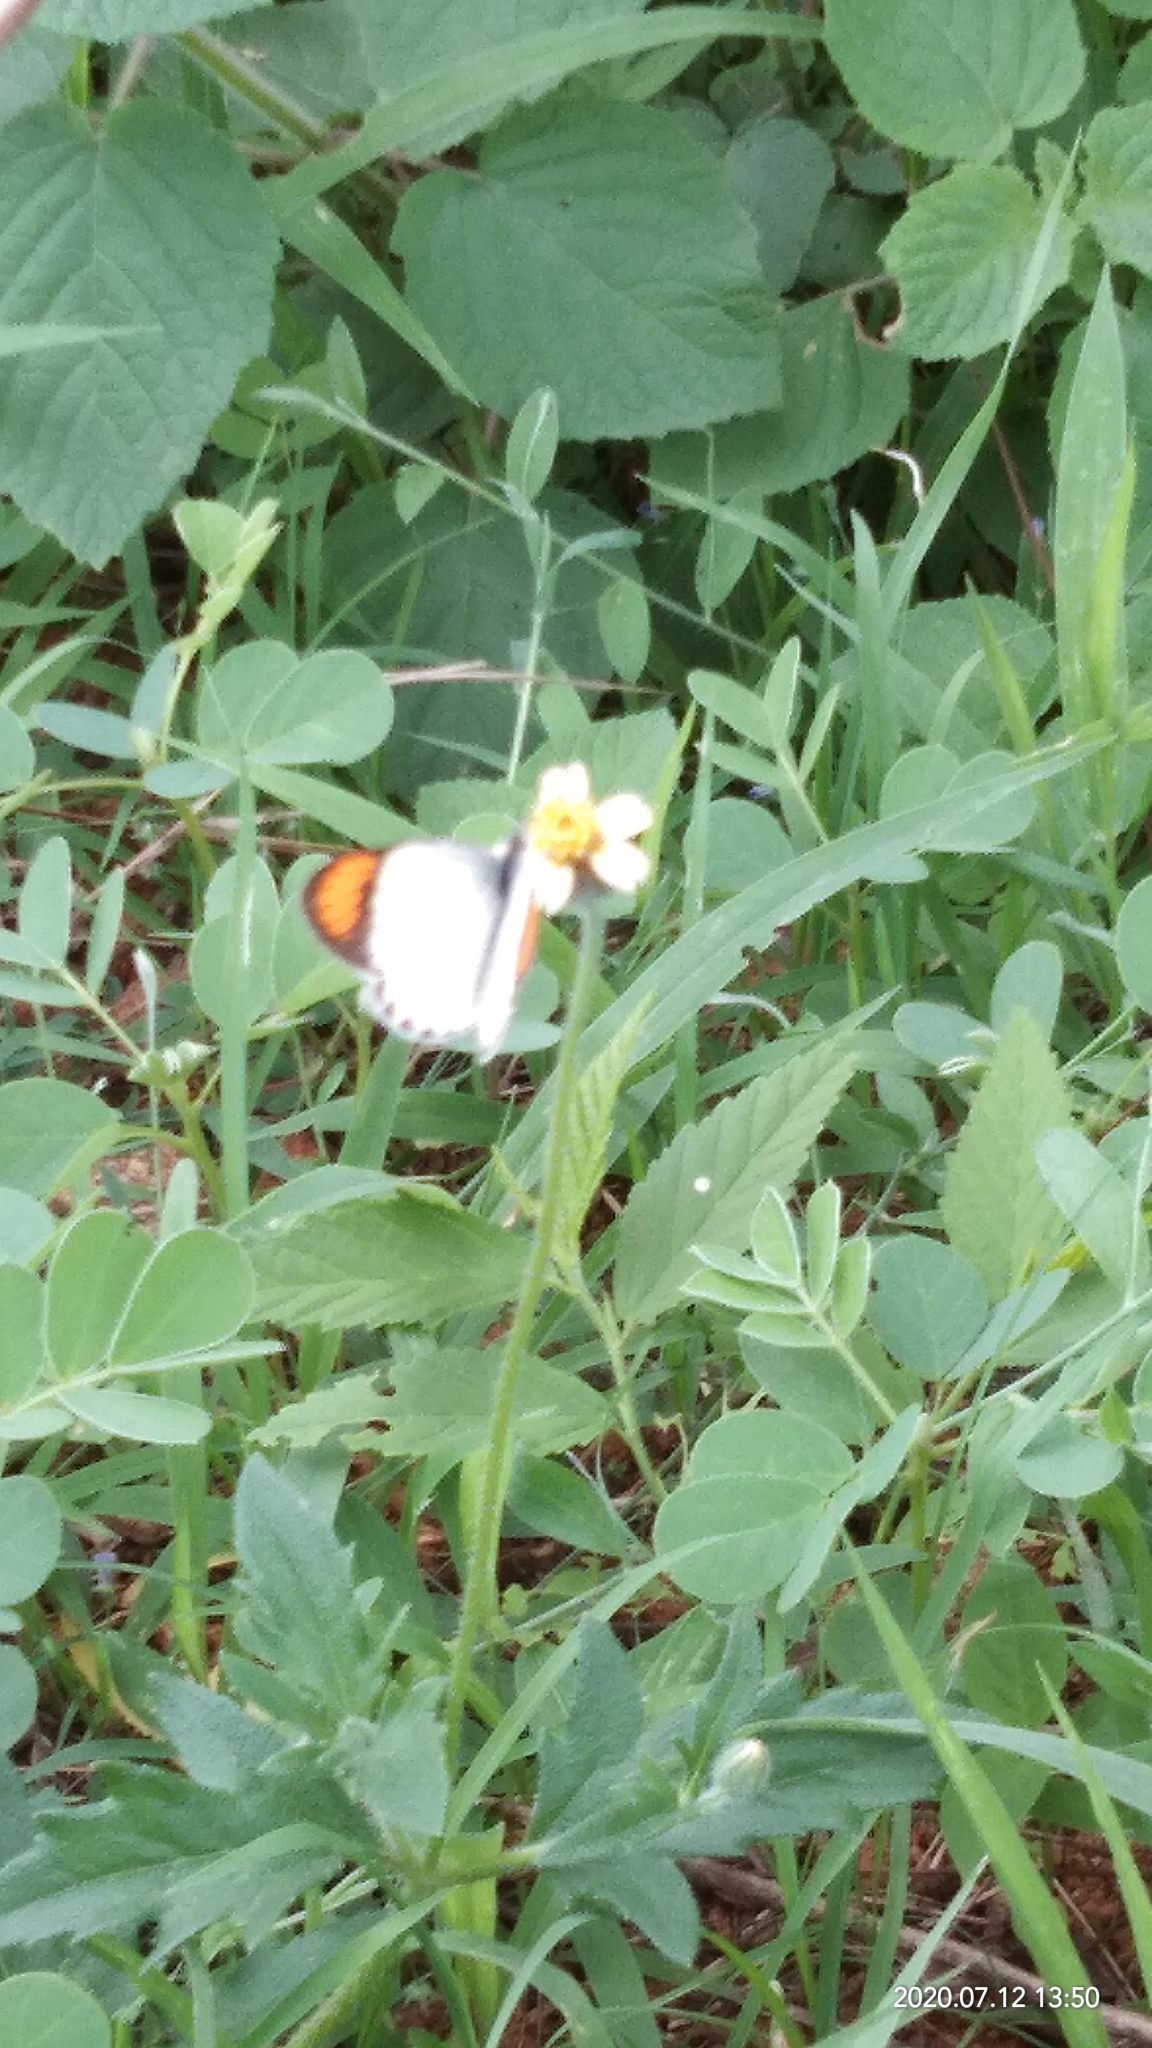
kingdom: Animalia
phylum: Arthropoda
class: Insecta
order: Lepidoptera
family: Pieridae
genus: Colotis
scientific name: Colotis etrida
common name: Little orange tip
